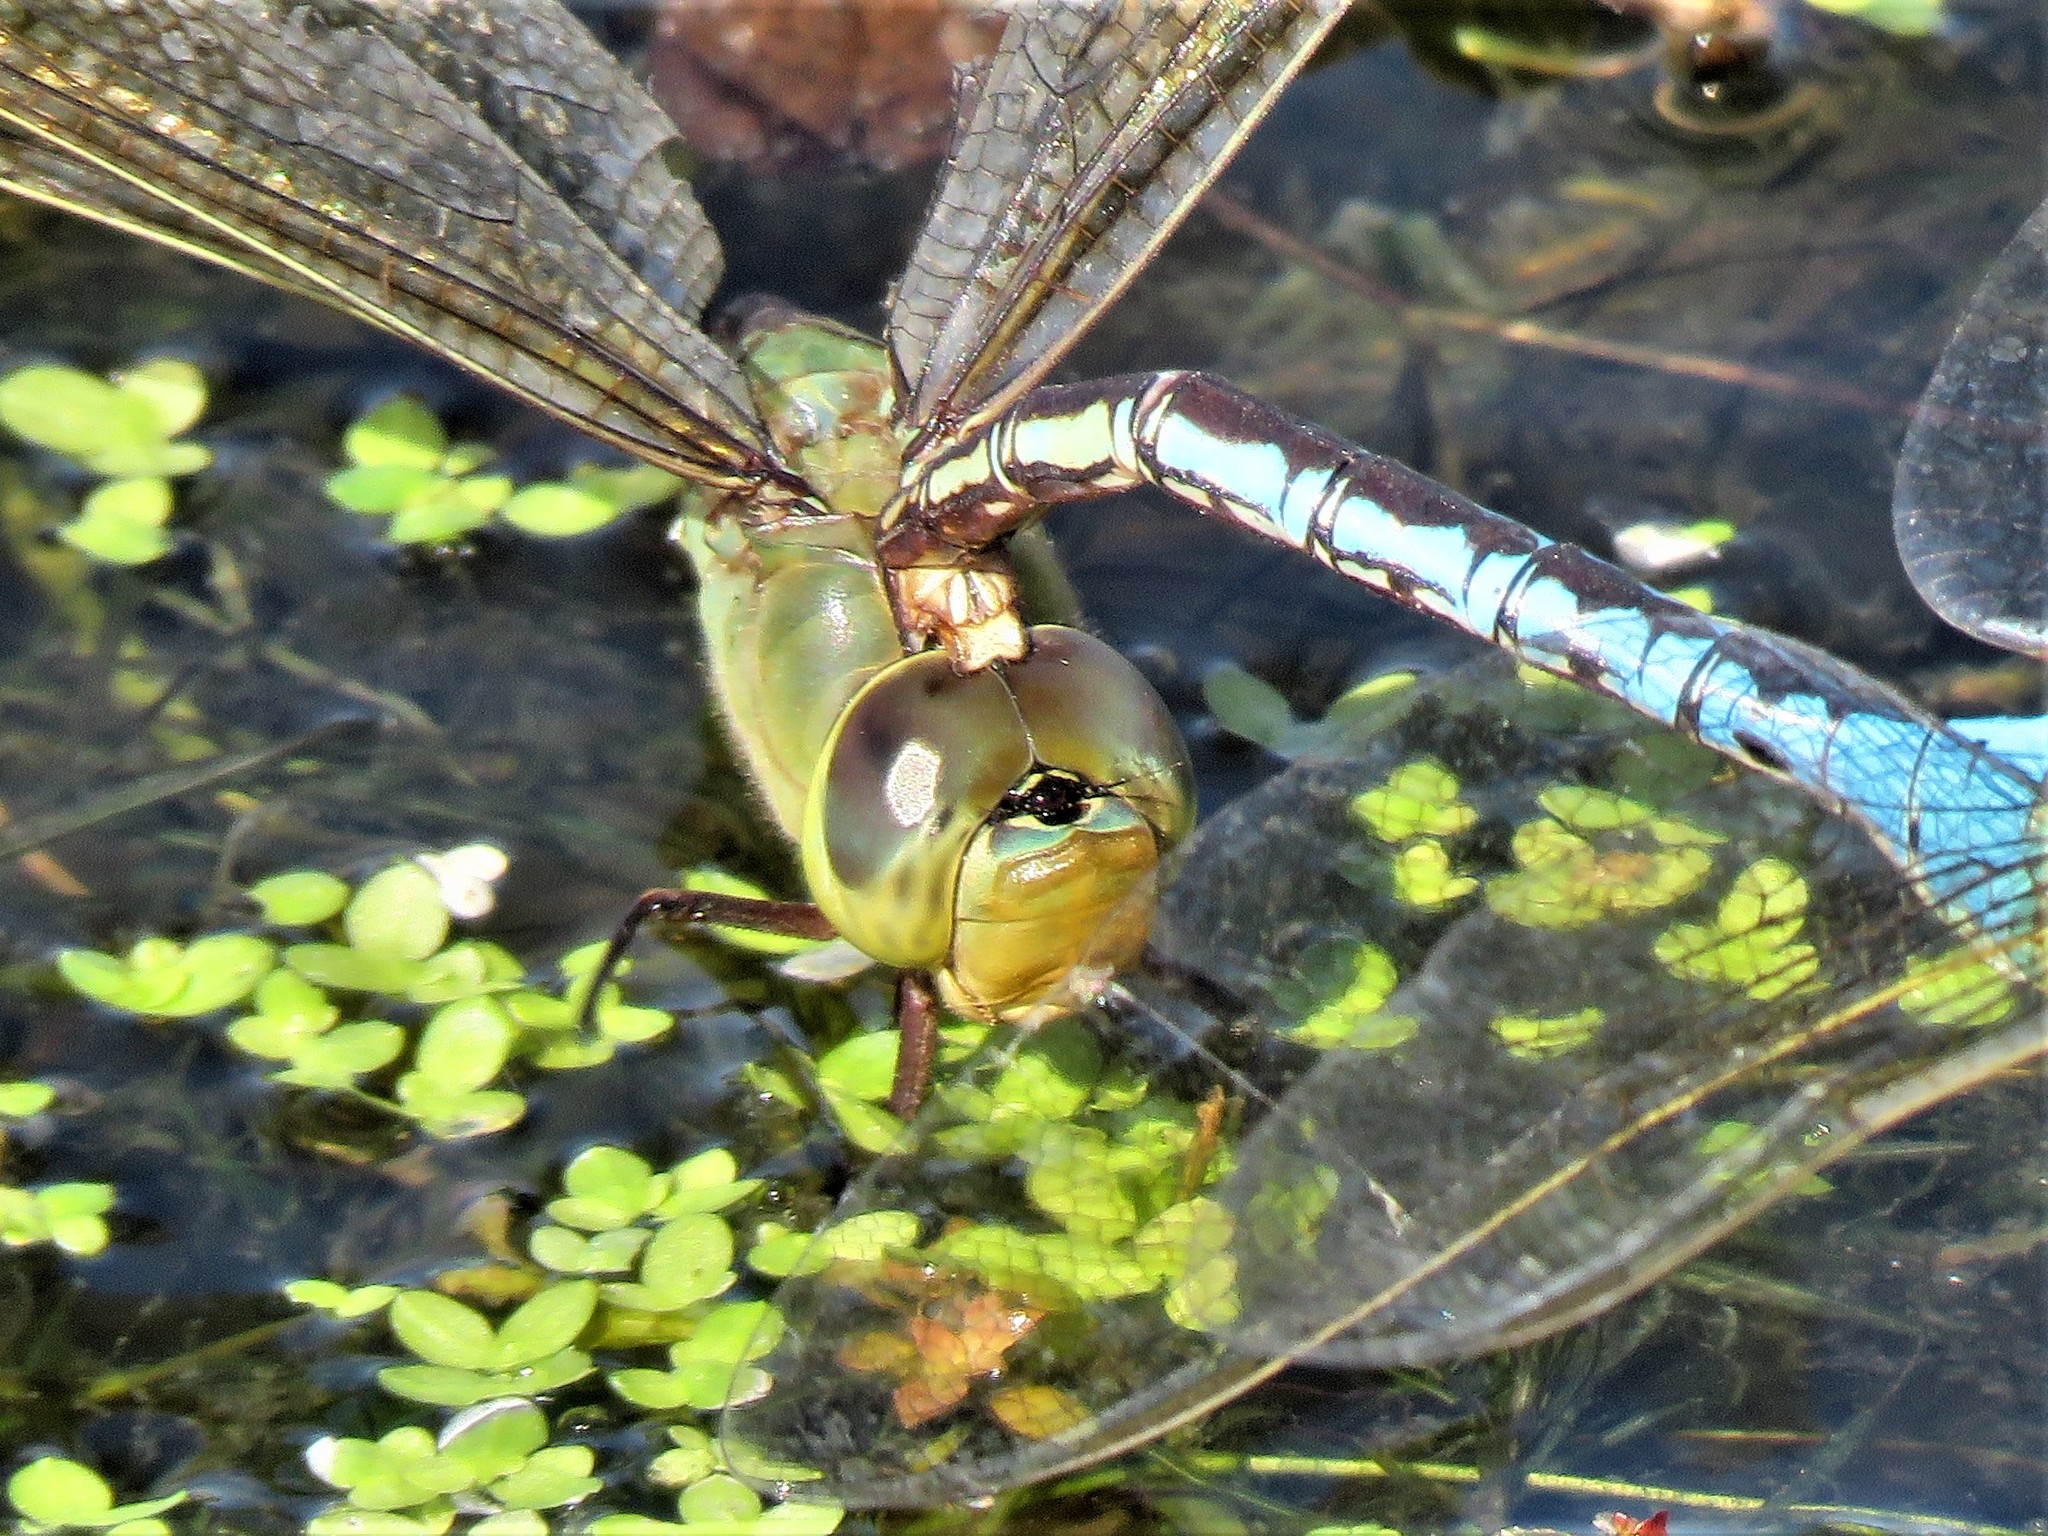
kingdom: Animalia
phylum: Arthropoda
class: Insecta
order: Odonata
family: Aeshnidae
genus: Anax
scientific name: Anax junius
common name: Common green darner
